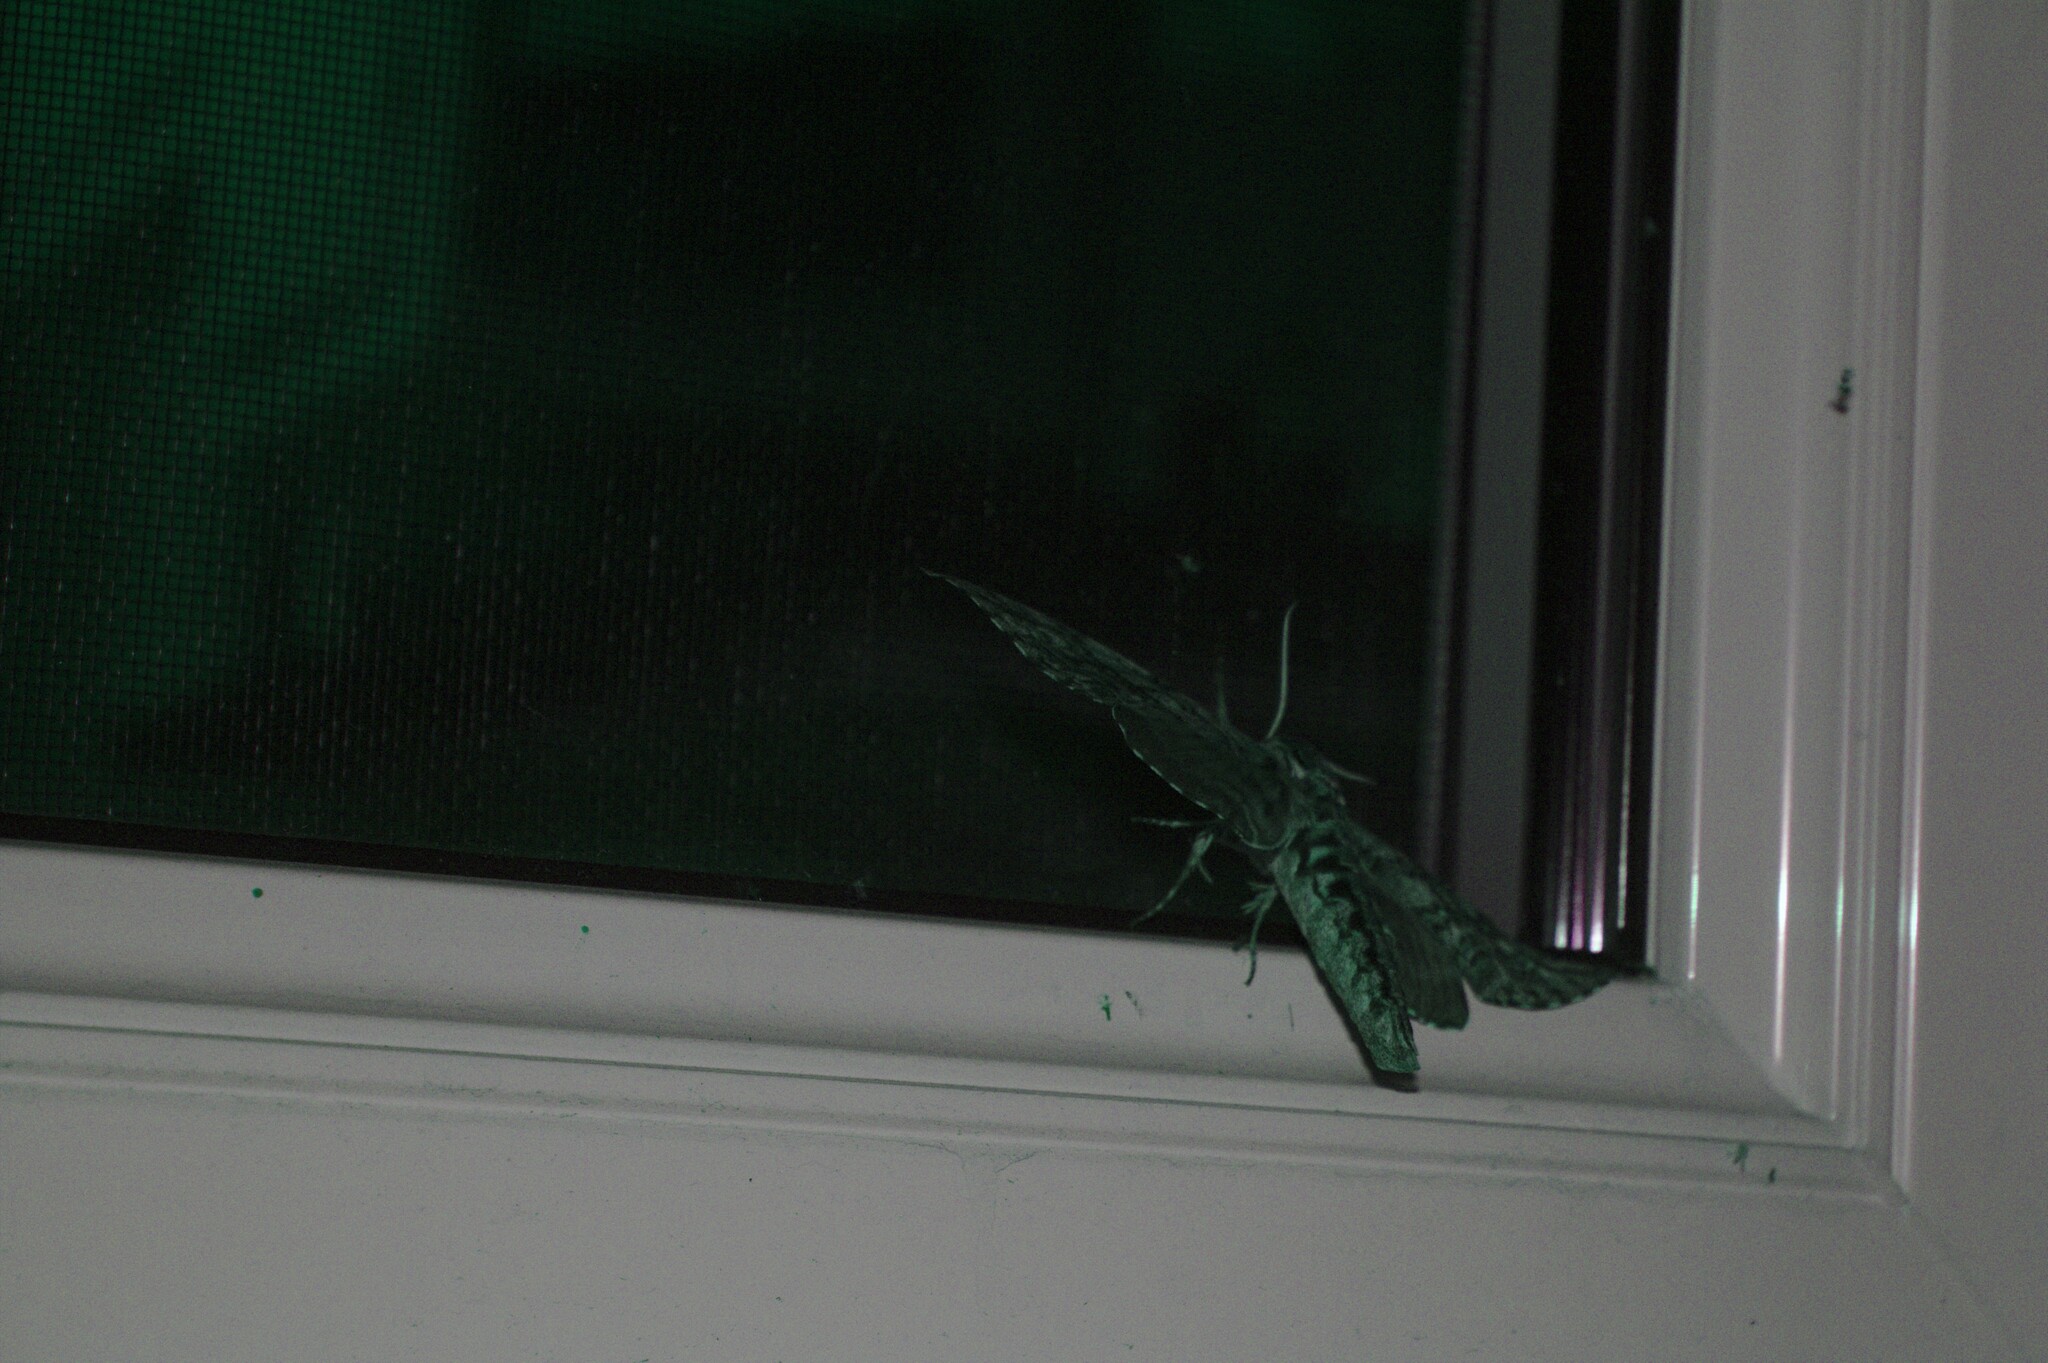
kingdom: Animalia
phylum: Arthropoda
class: Insecta
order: Lepidoptera
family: Sphingidae
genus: Ceratomia
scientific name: Ceratomia undulosa
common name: Waved sphinx
